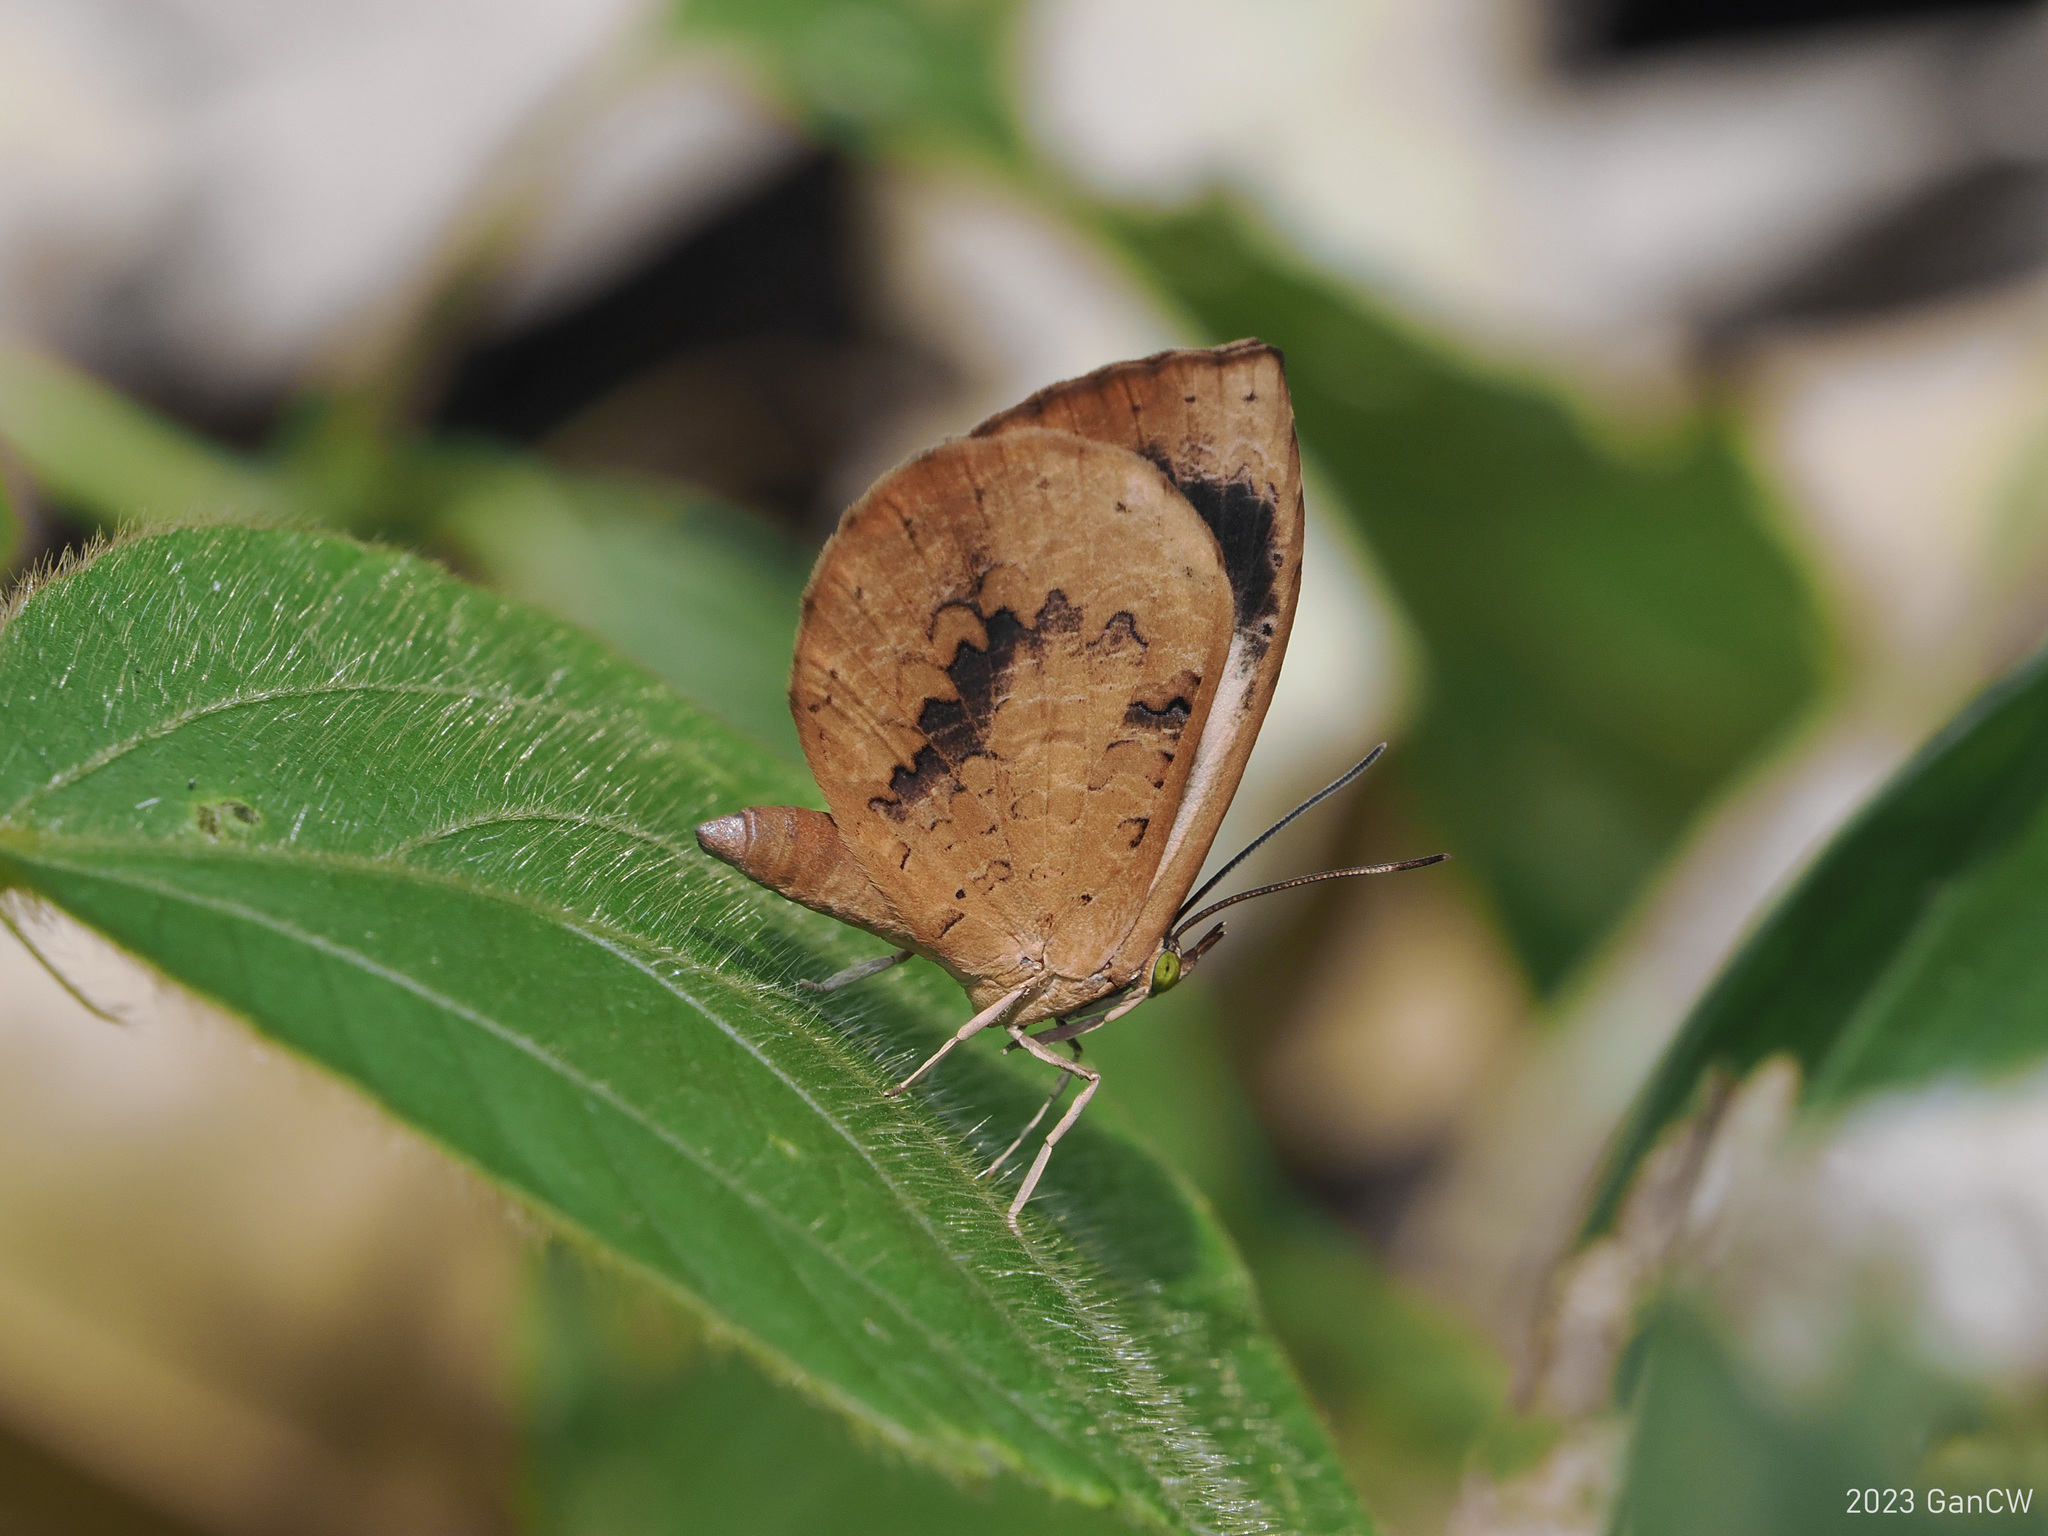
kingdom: Animalia
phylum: Arthropoda
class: Insecta
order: Lepidoptera
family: Lycaenidae
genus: Miletus
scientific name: Miletus ancon
